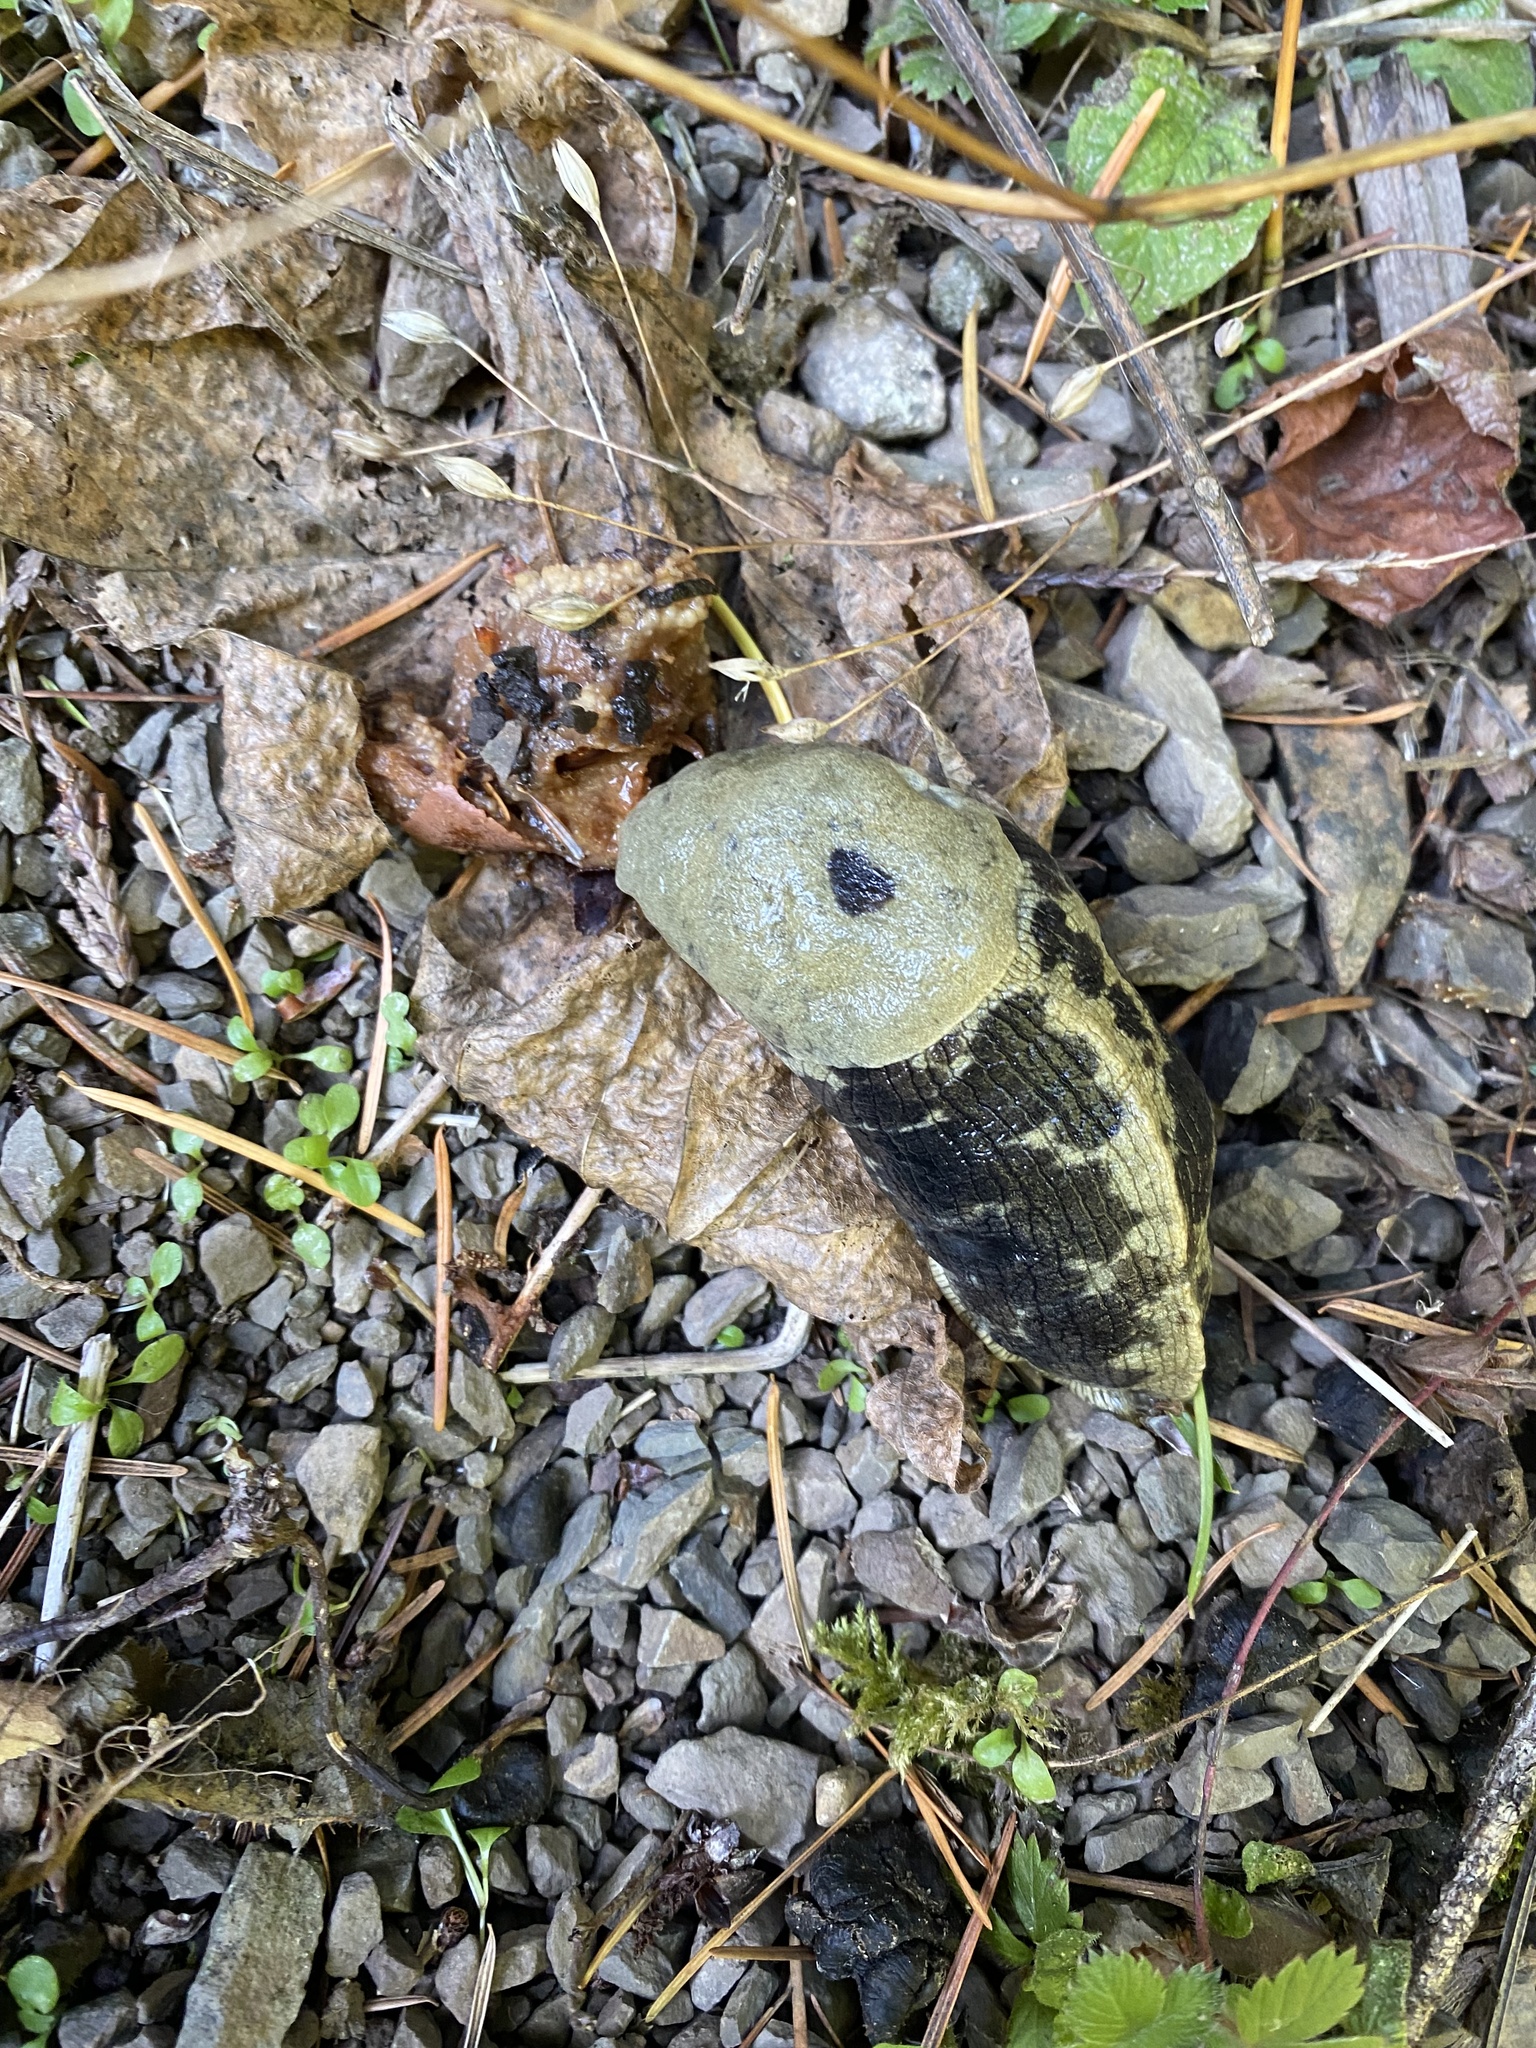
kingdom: Animalia
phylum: Mollusca
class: Gastropoda
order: Stylommatophora
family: Ariolimacidae
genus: Ariolimax
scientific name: Ariolimax columbianus
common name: Pacific banana slug
